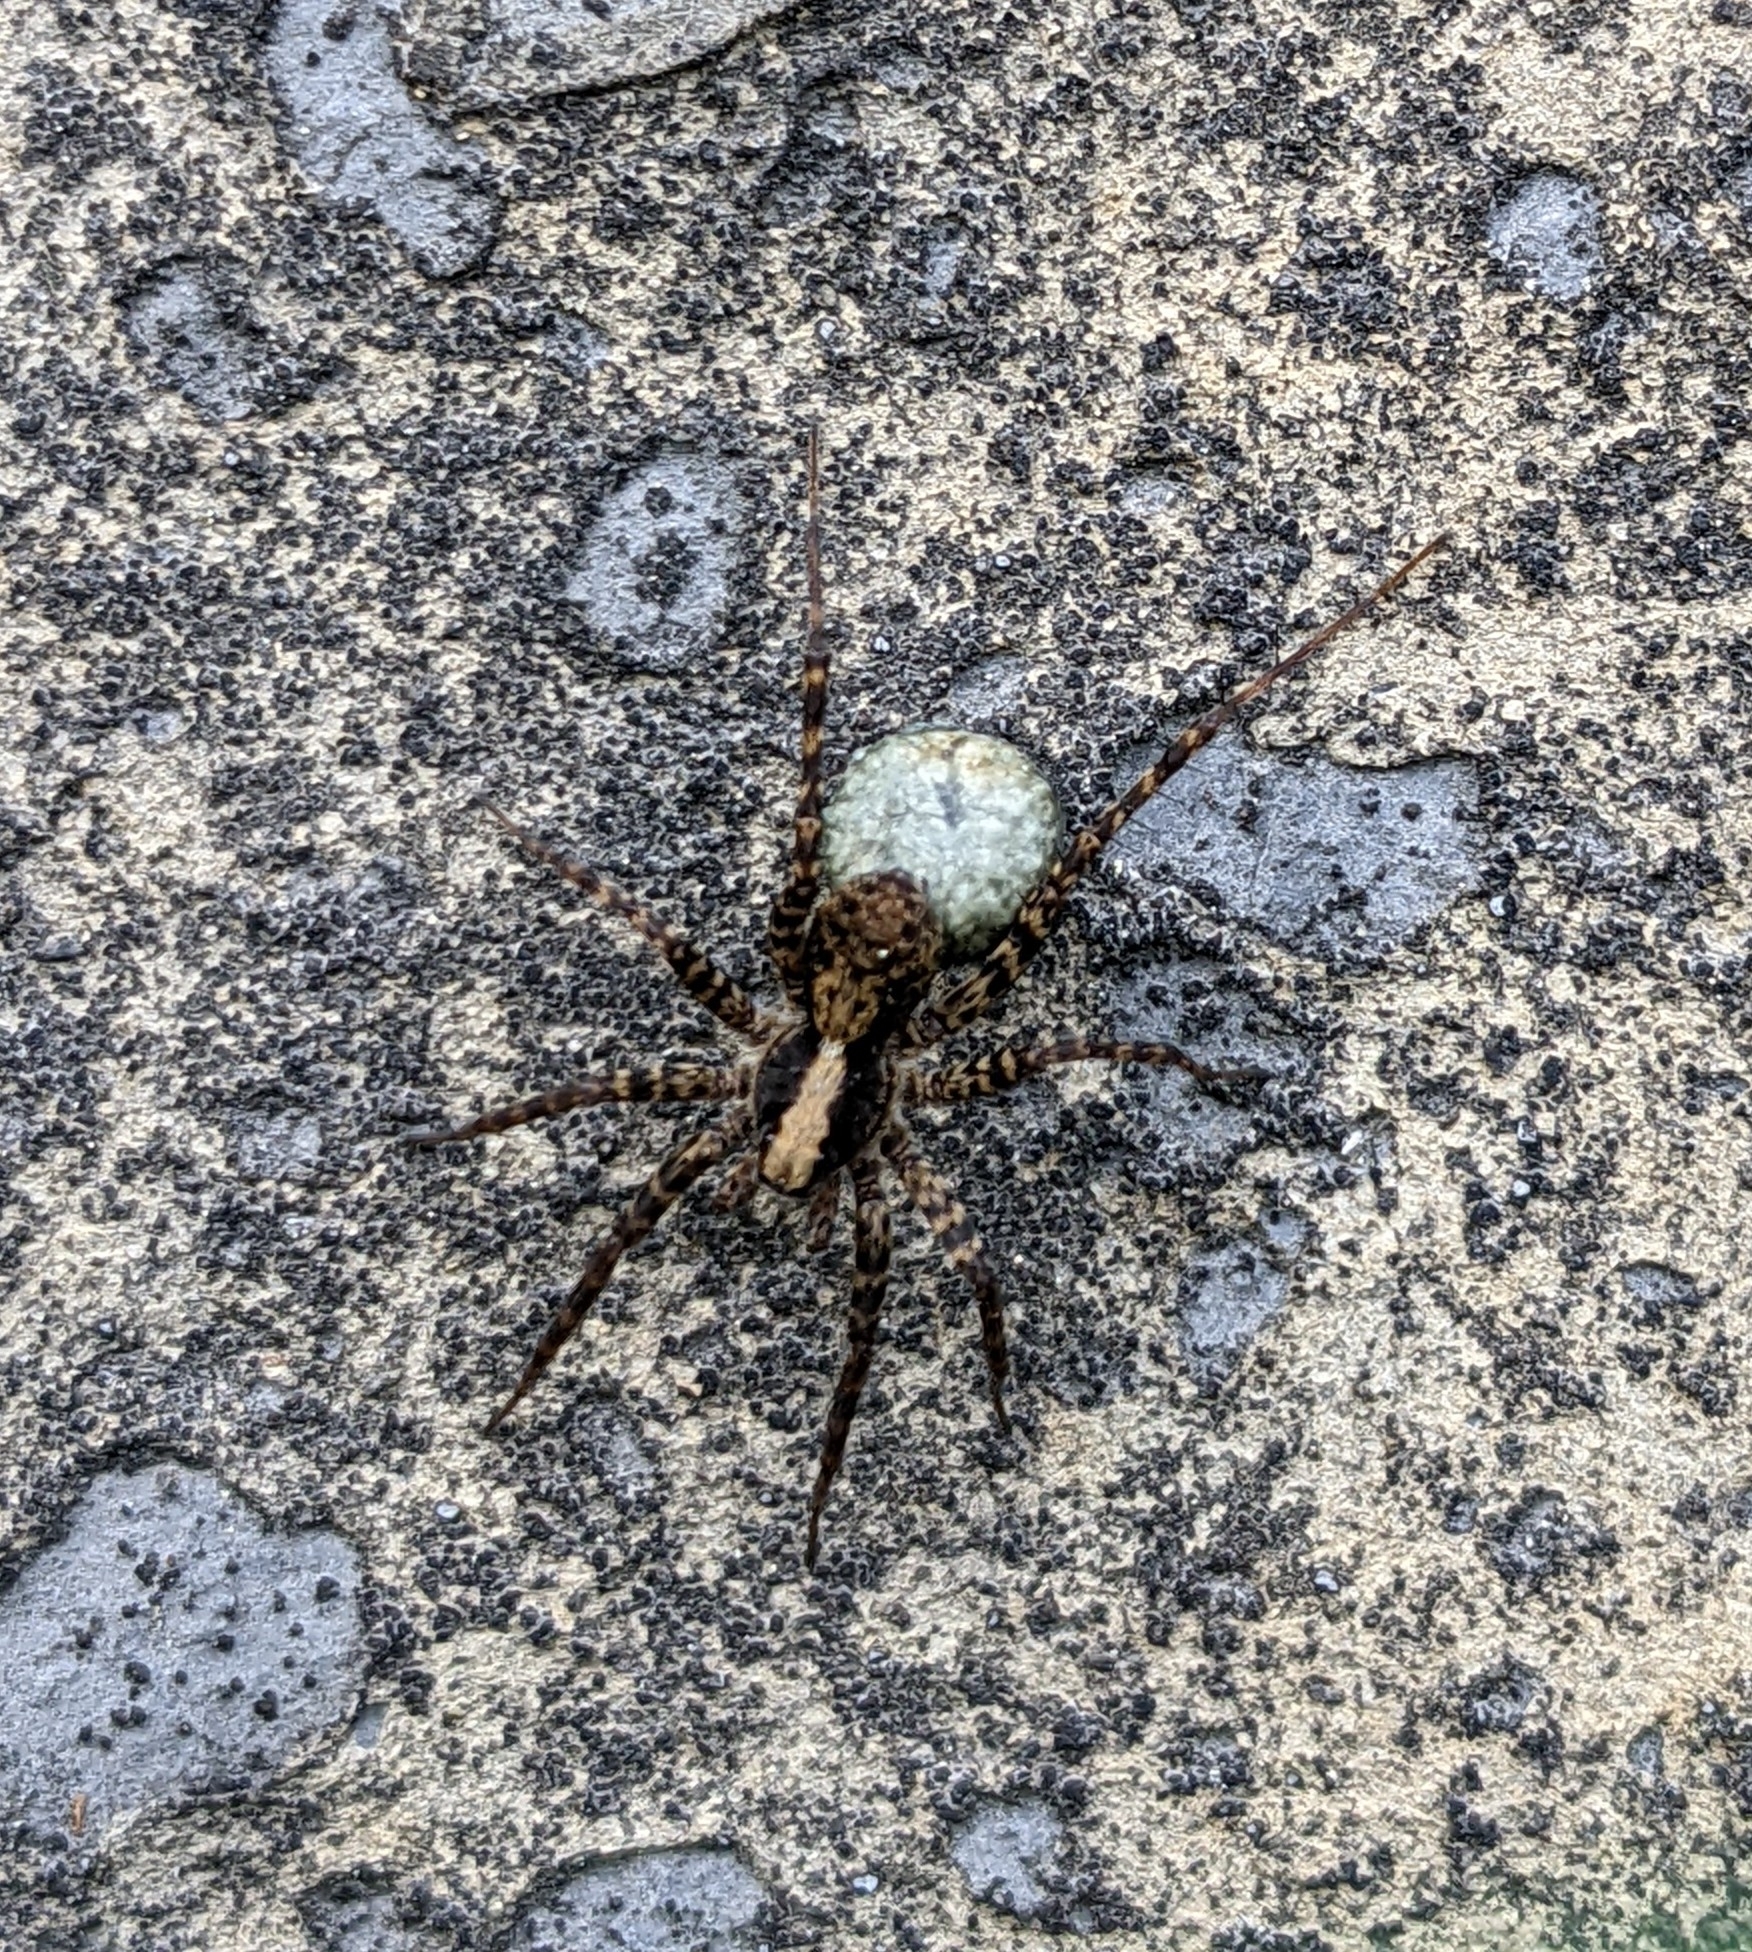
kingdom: Animalia
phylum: Arthropoda
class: Arachnida
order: Araneae
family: Lycosidae
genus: Pardosa
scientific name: Pardosa
